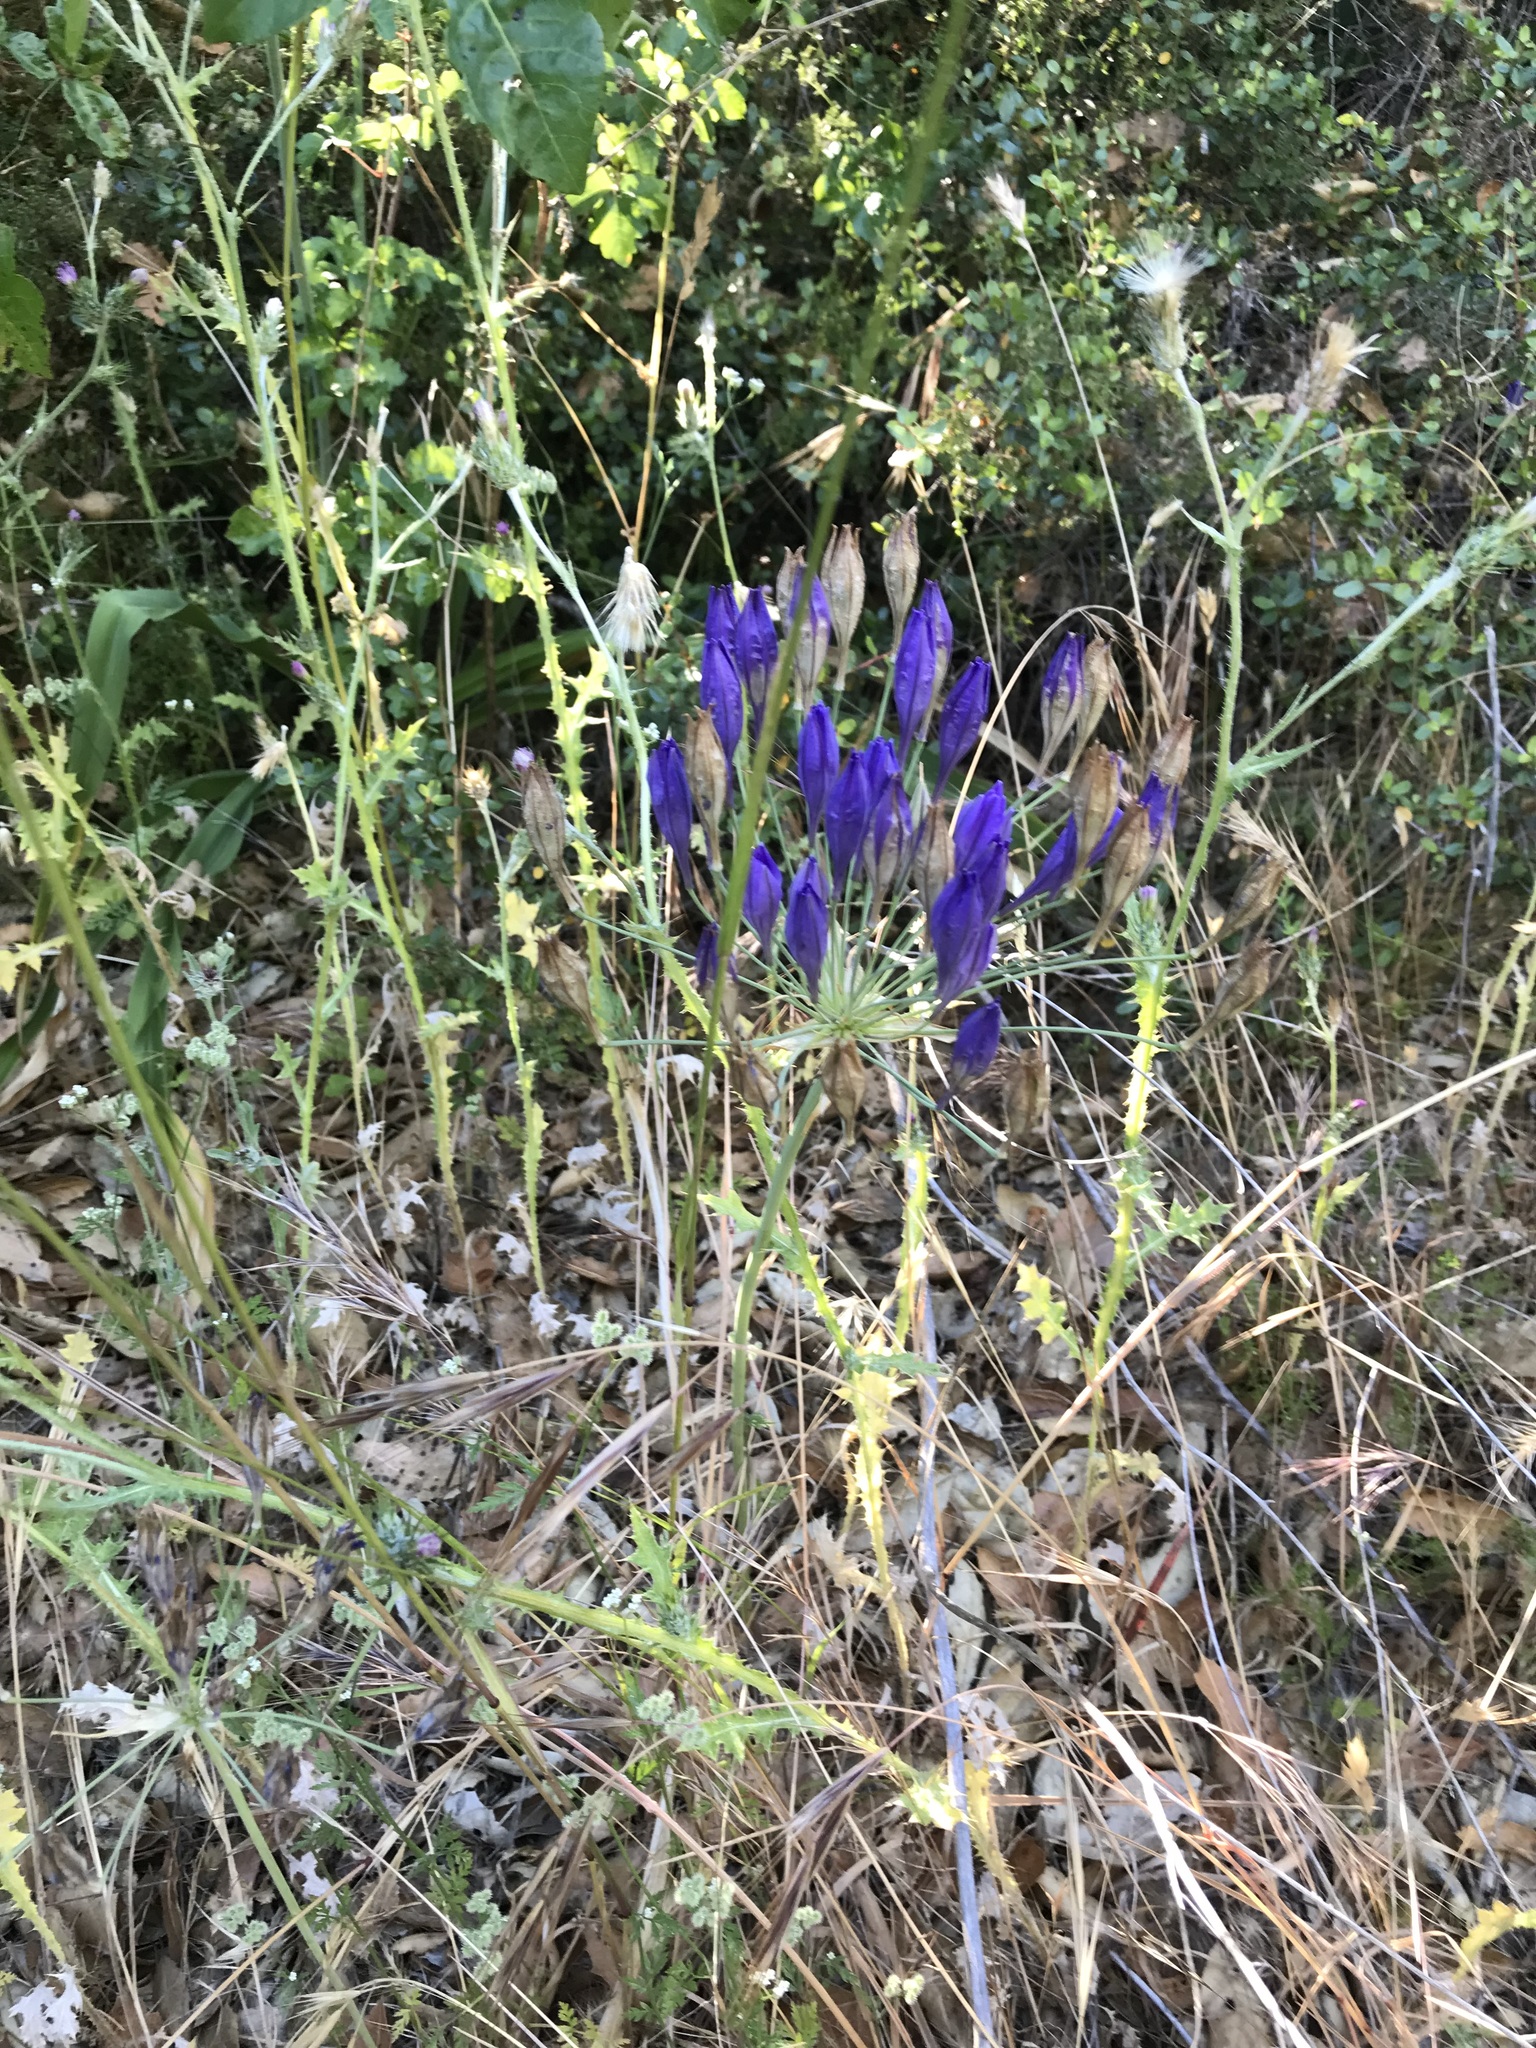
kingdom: Plantae
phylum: Tracheophyta
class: Liliopsida
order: Asparagales
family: Asparagaceae
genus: Triteleia
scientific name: Triteleia laxa
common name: Triplet-lily
